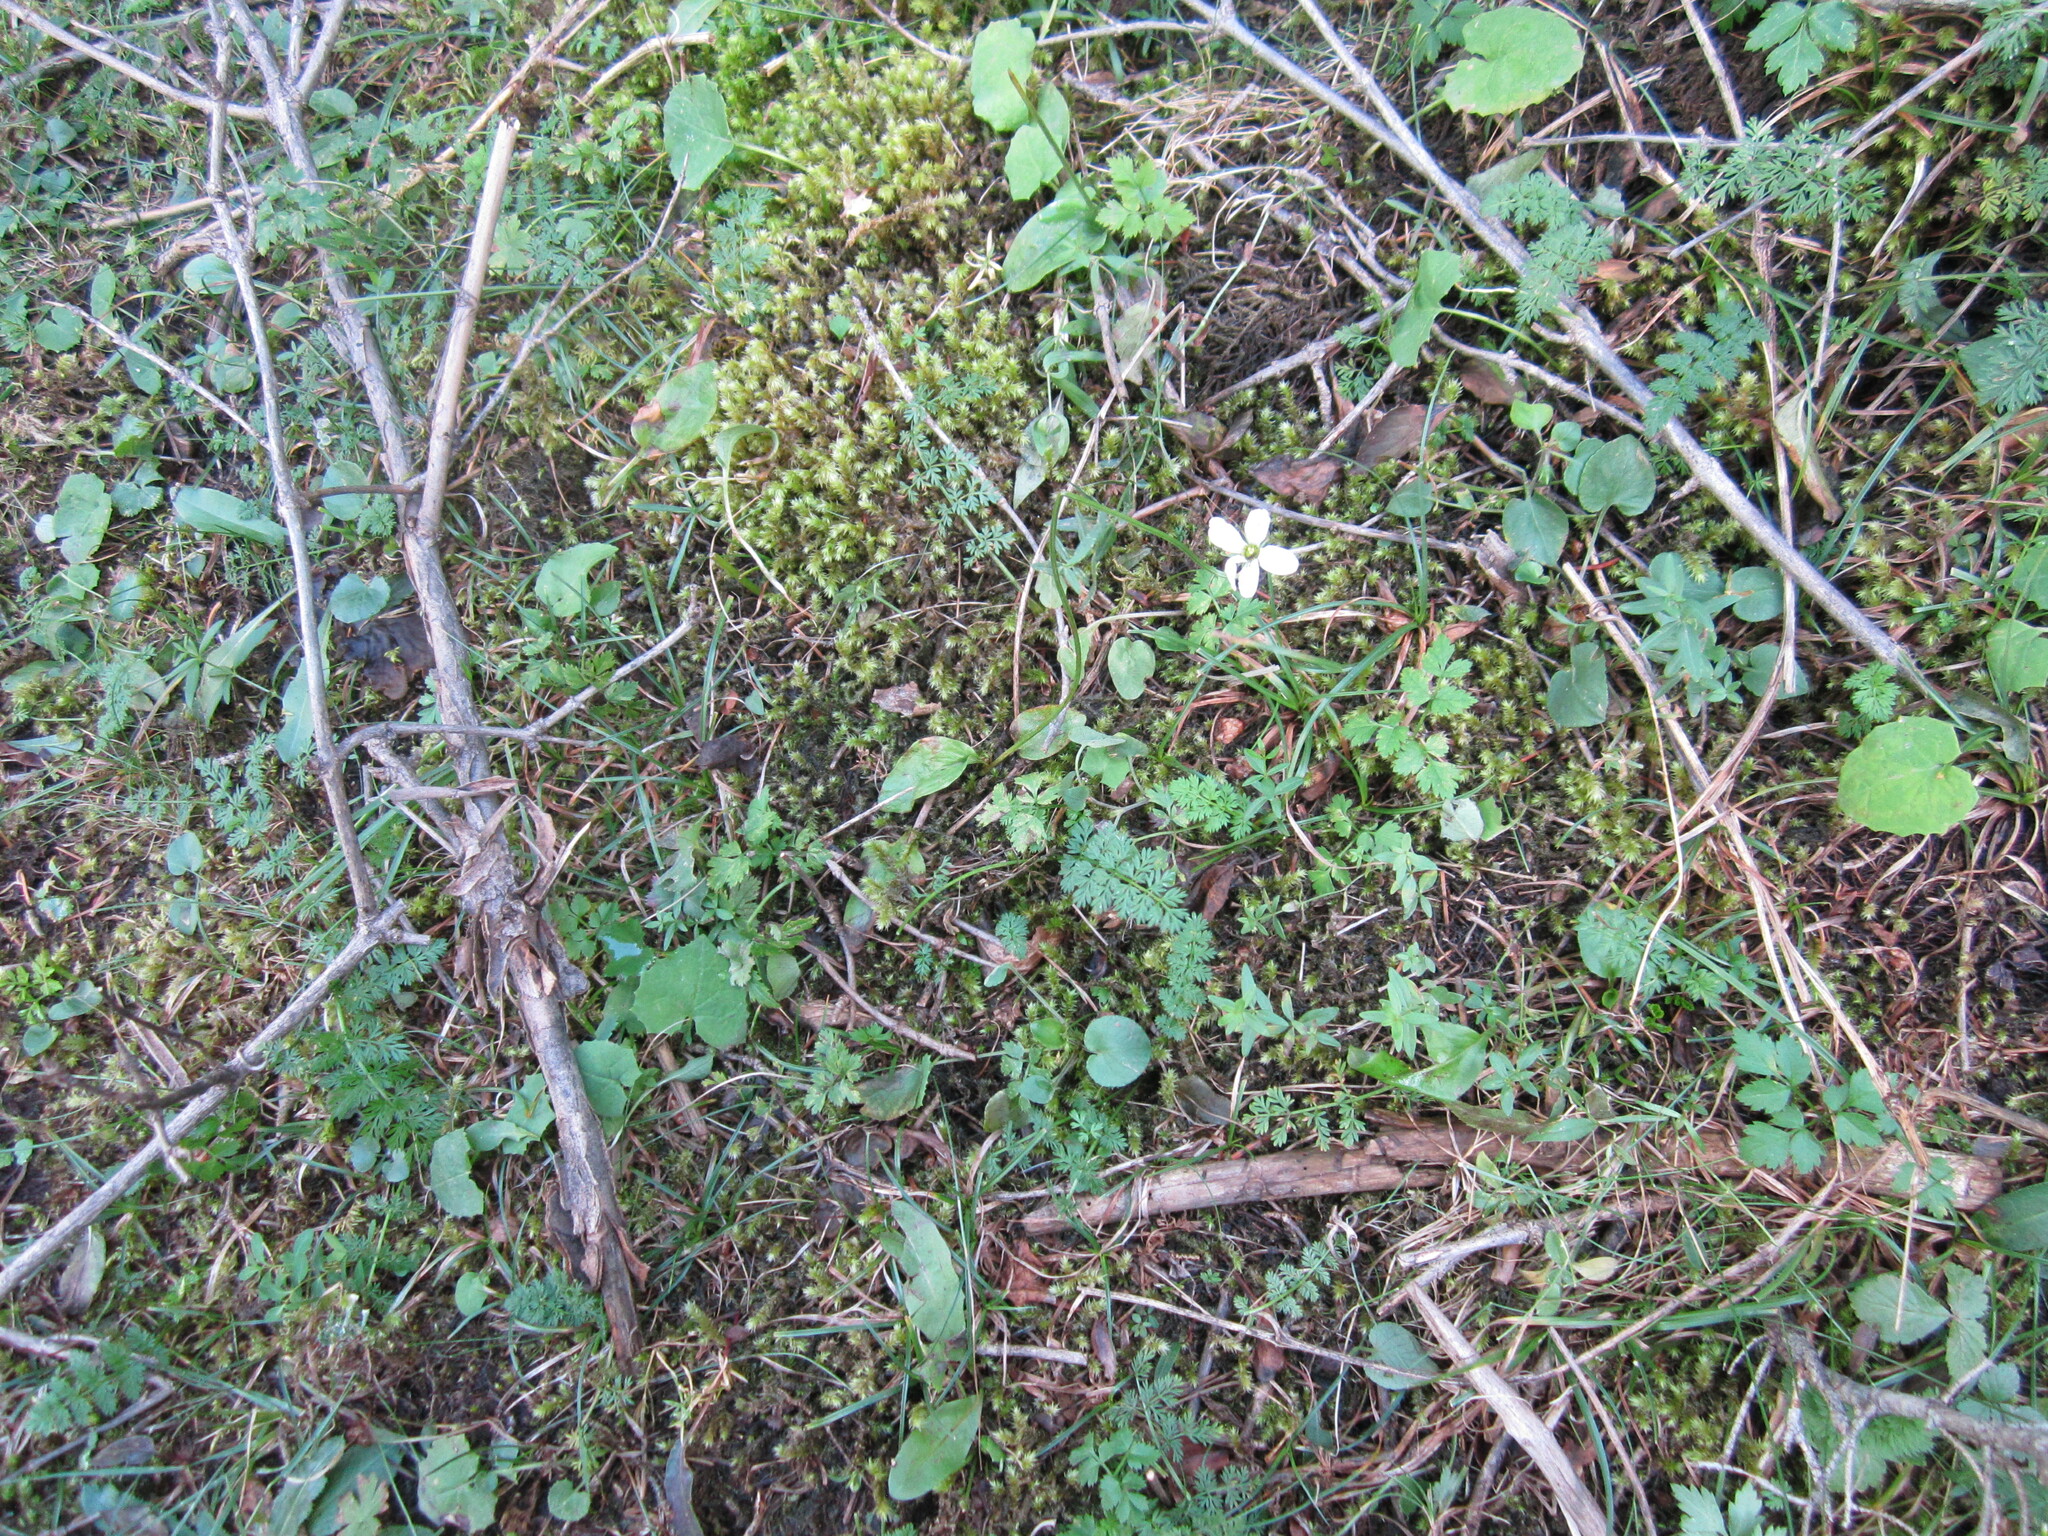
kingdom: Plantae
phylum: Tracheophyta
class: Magnoliopsida
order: Celastrales
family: Parnassiaceae
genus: Parnassia
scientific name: Parnassia laxmannii
